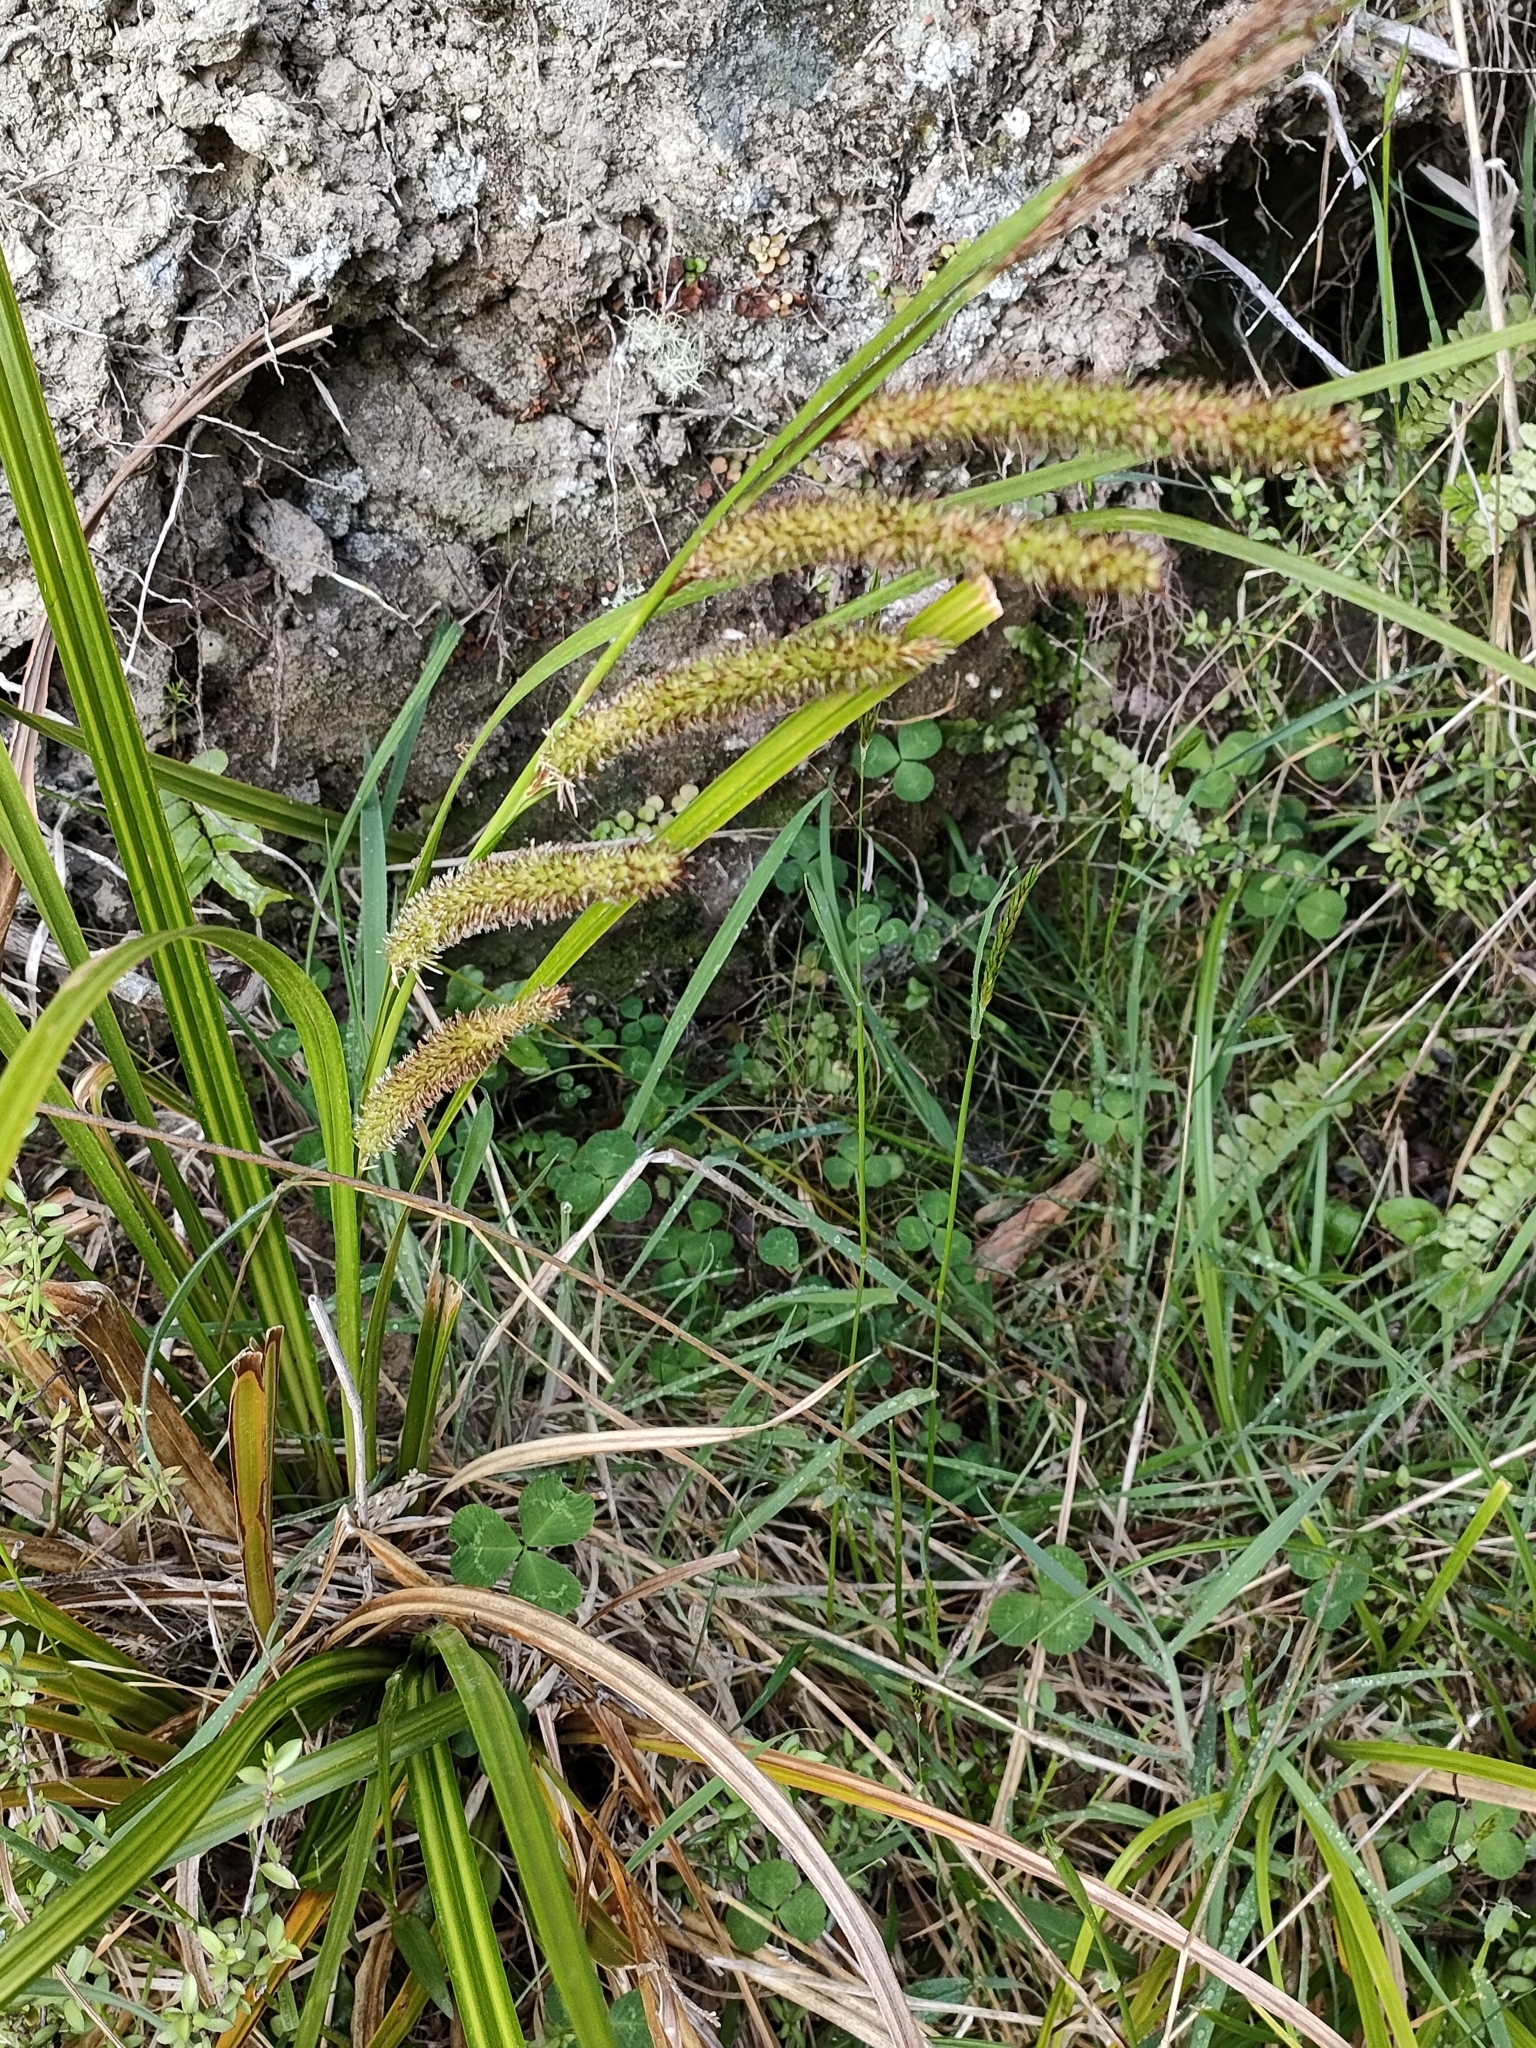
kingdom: Plantae
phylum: Tracheophyta
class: Liliopsida
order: Poales
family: Cyperaceae
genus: Carex
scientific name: Carex forsteri
